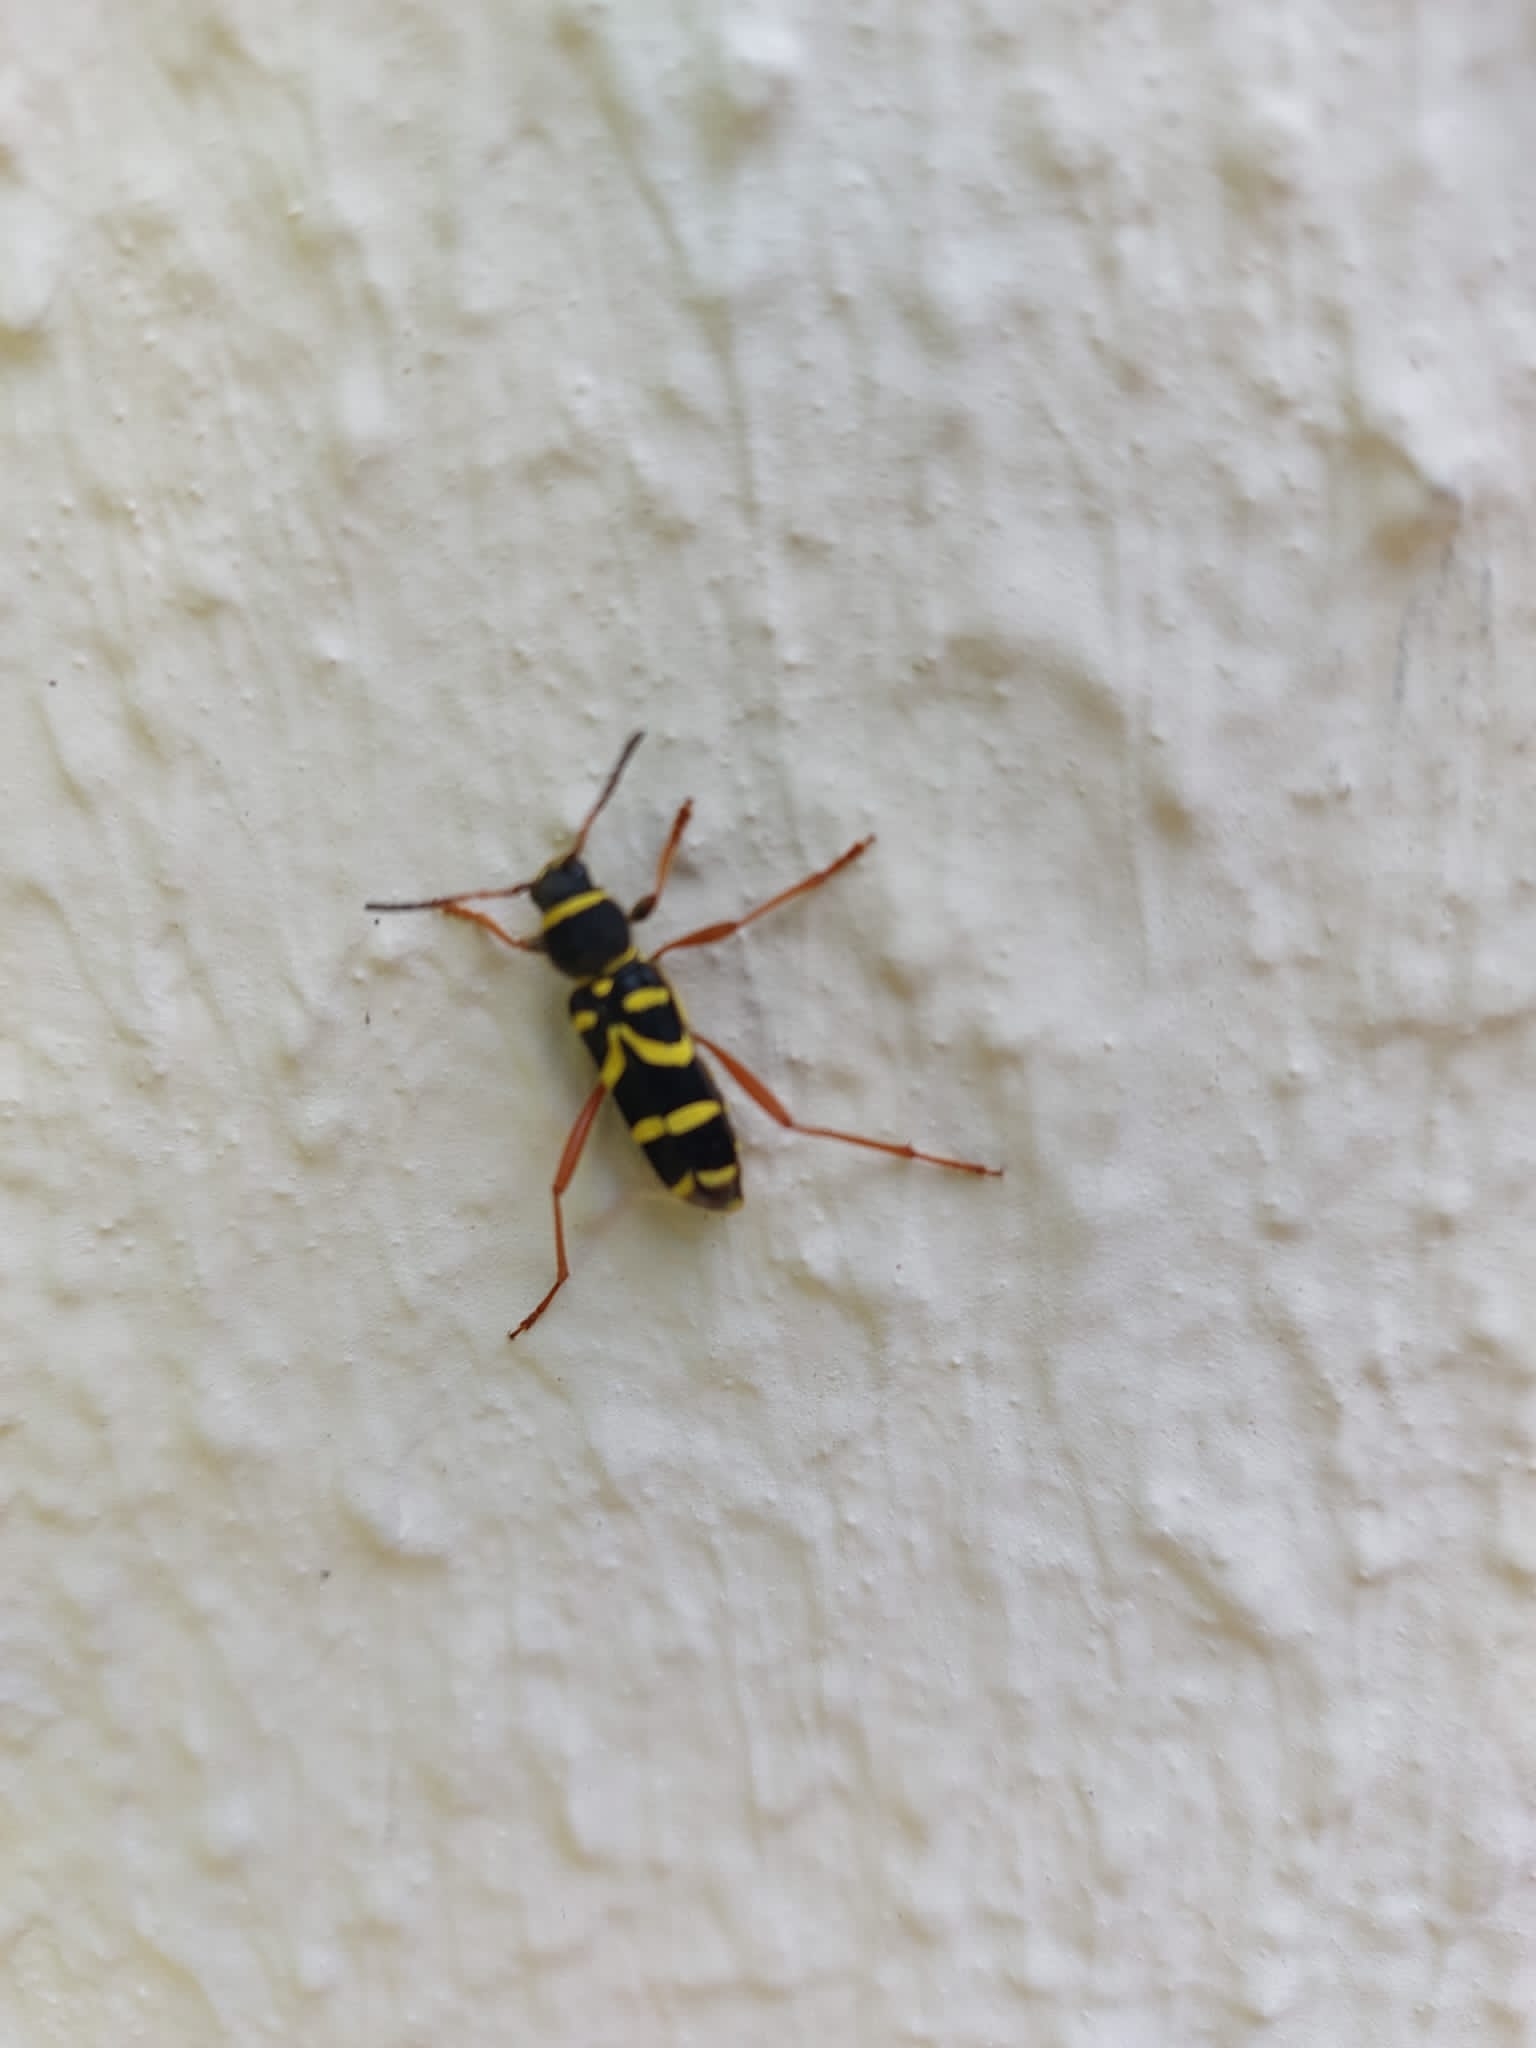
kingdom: Animalia
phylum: Arthropoda
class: Insecta
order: Coleoptera
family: Cerambycidae
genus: Clytus
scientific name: Clytus arietis
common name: Wasp beetle
